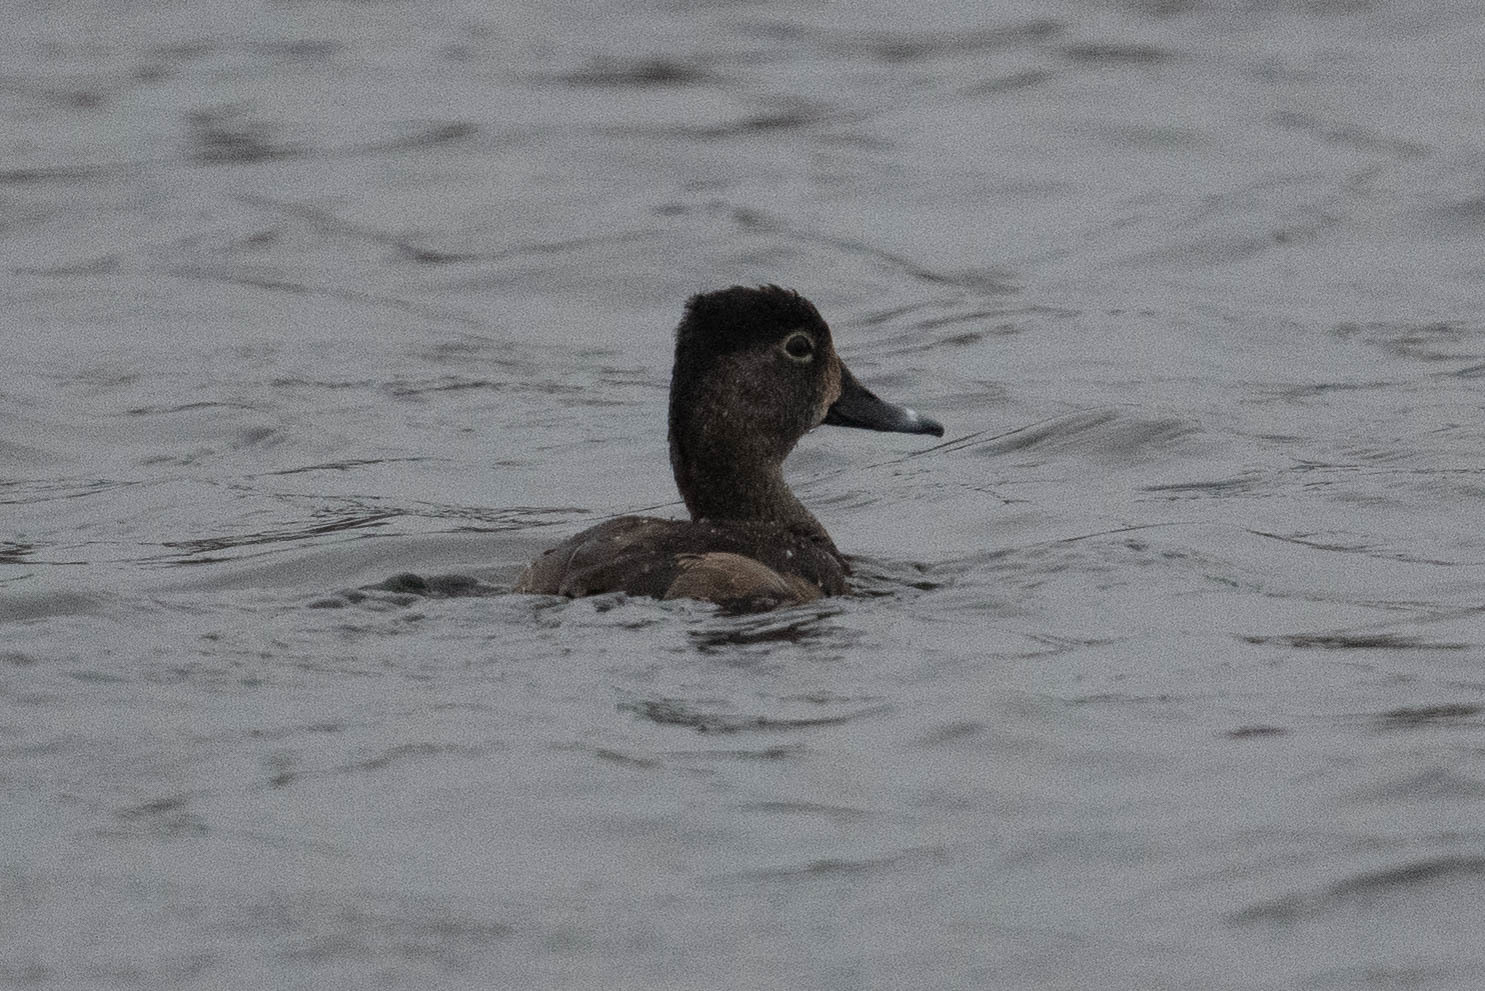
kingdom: Animalia
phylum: Chordata
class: Aves
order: Anseriformes
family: Anatidae
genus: Aythya
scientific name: Aythya collaris
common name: Ring-necked duck
